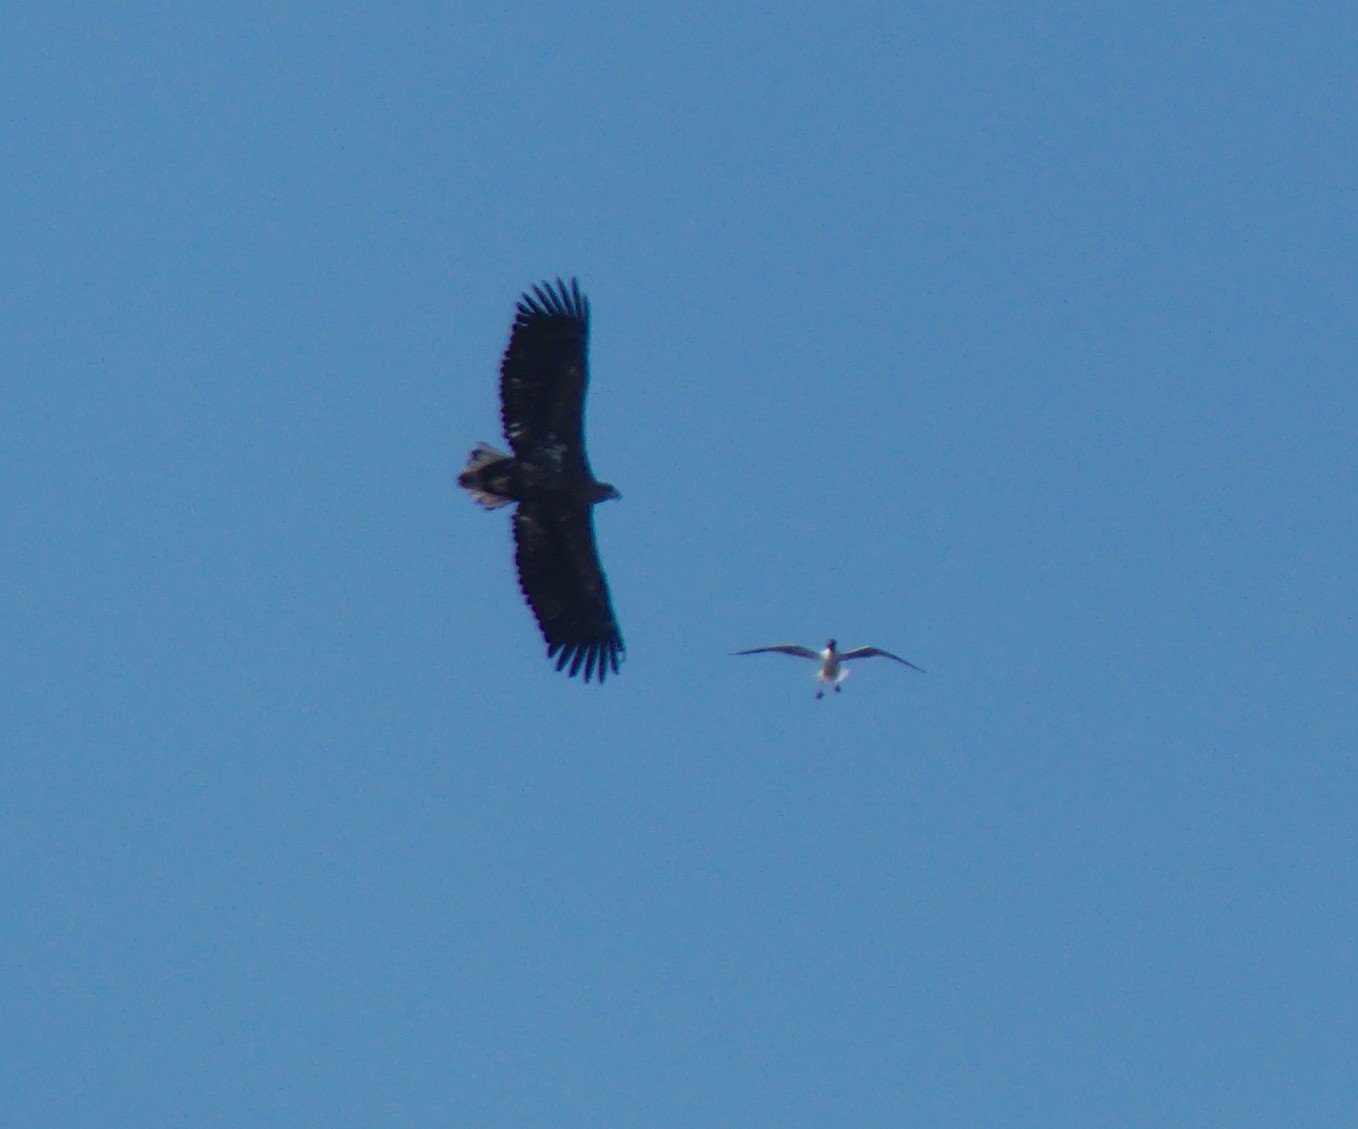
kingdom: Animalia
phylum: Chordata
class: Aves
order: Charadriiformes
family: Laridae
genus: Chroicocephalus
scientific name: Chroicocephalus ridibundus
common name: Black-headed gull
